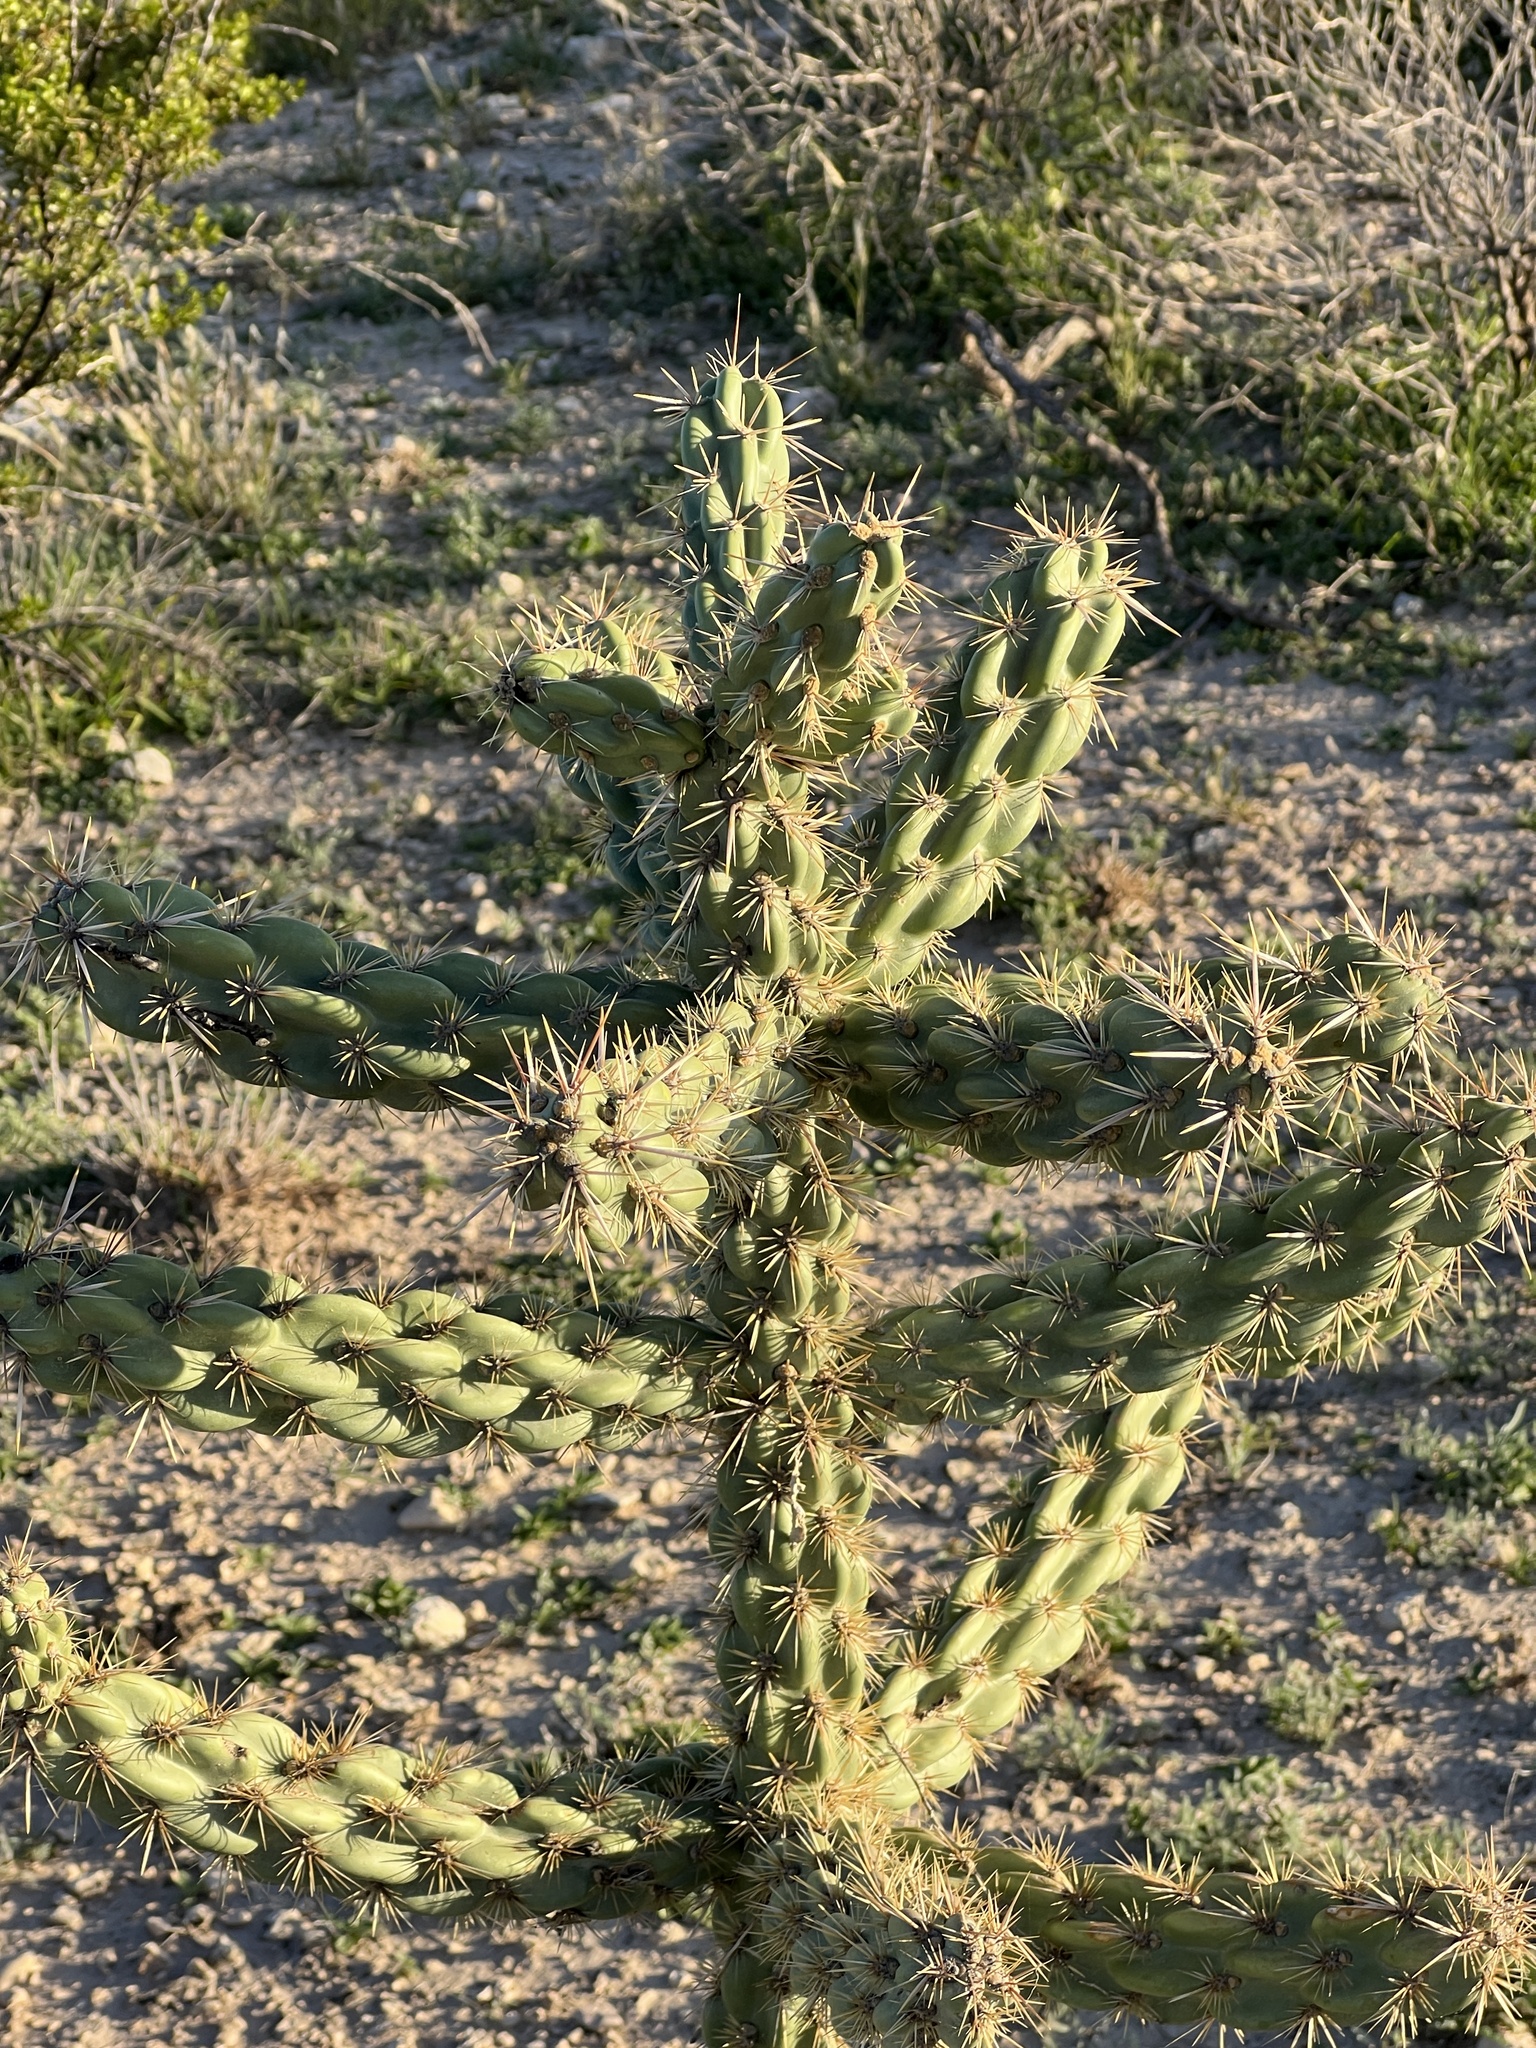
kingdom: Plantae
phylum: Tracheophyta
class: Magnoliopsida
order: Caryophyllales
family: Cactaceae
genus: Cylindropuntia
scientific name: Cylindropuntia imbricata
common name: Candelabrum cactus
